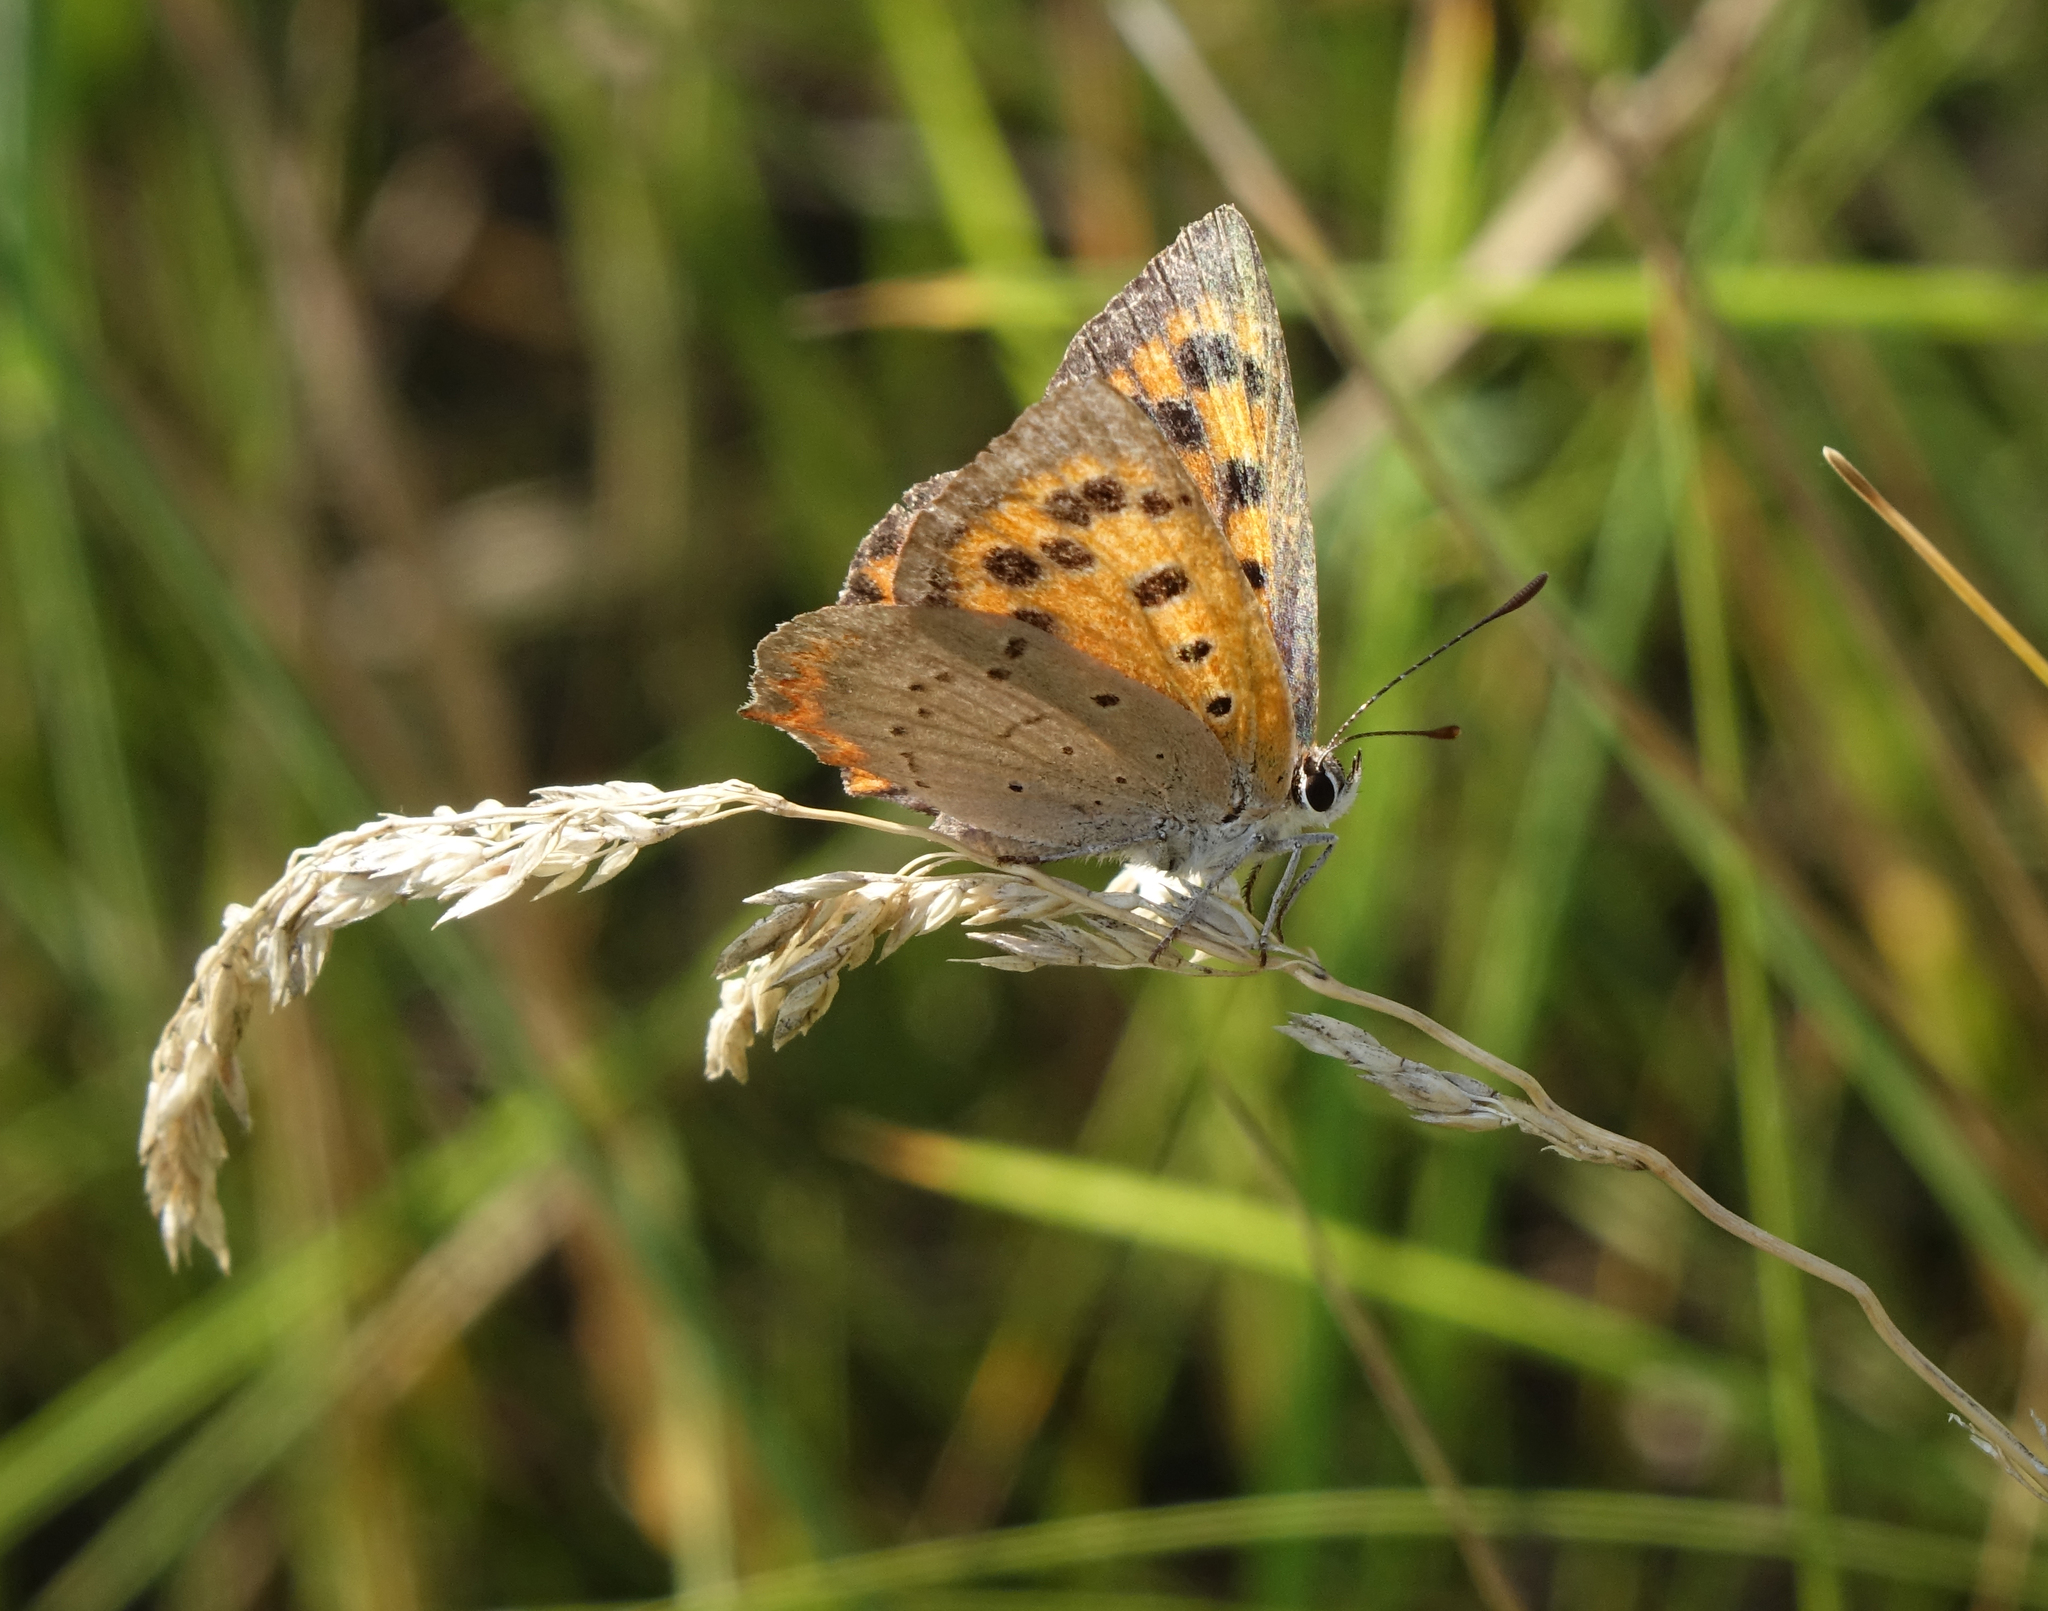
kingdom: Animalia
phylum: Arthropoda
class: Insecta
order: Lepidoptera
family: Lycaenidae
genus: Lycaena
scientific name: Lycaena phlaeas
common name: Small copper
